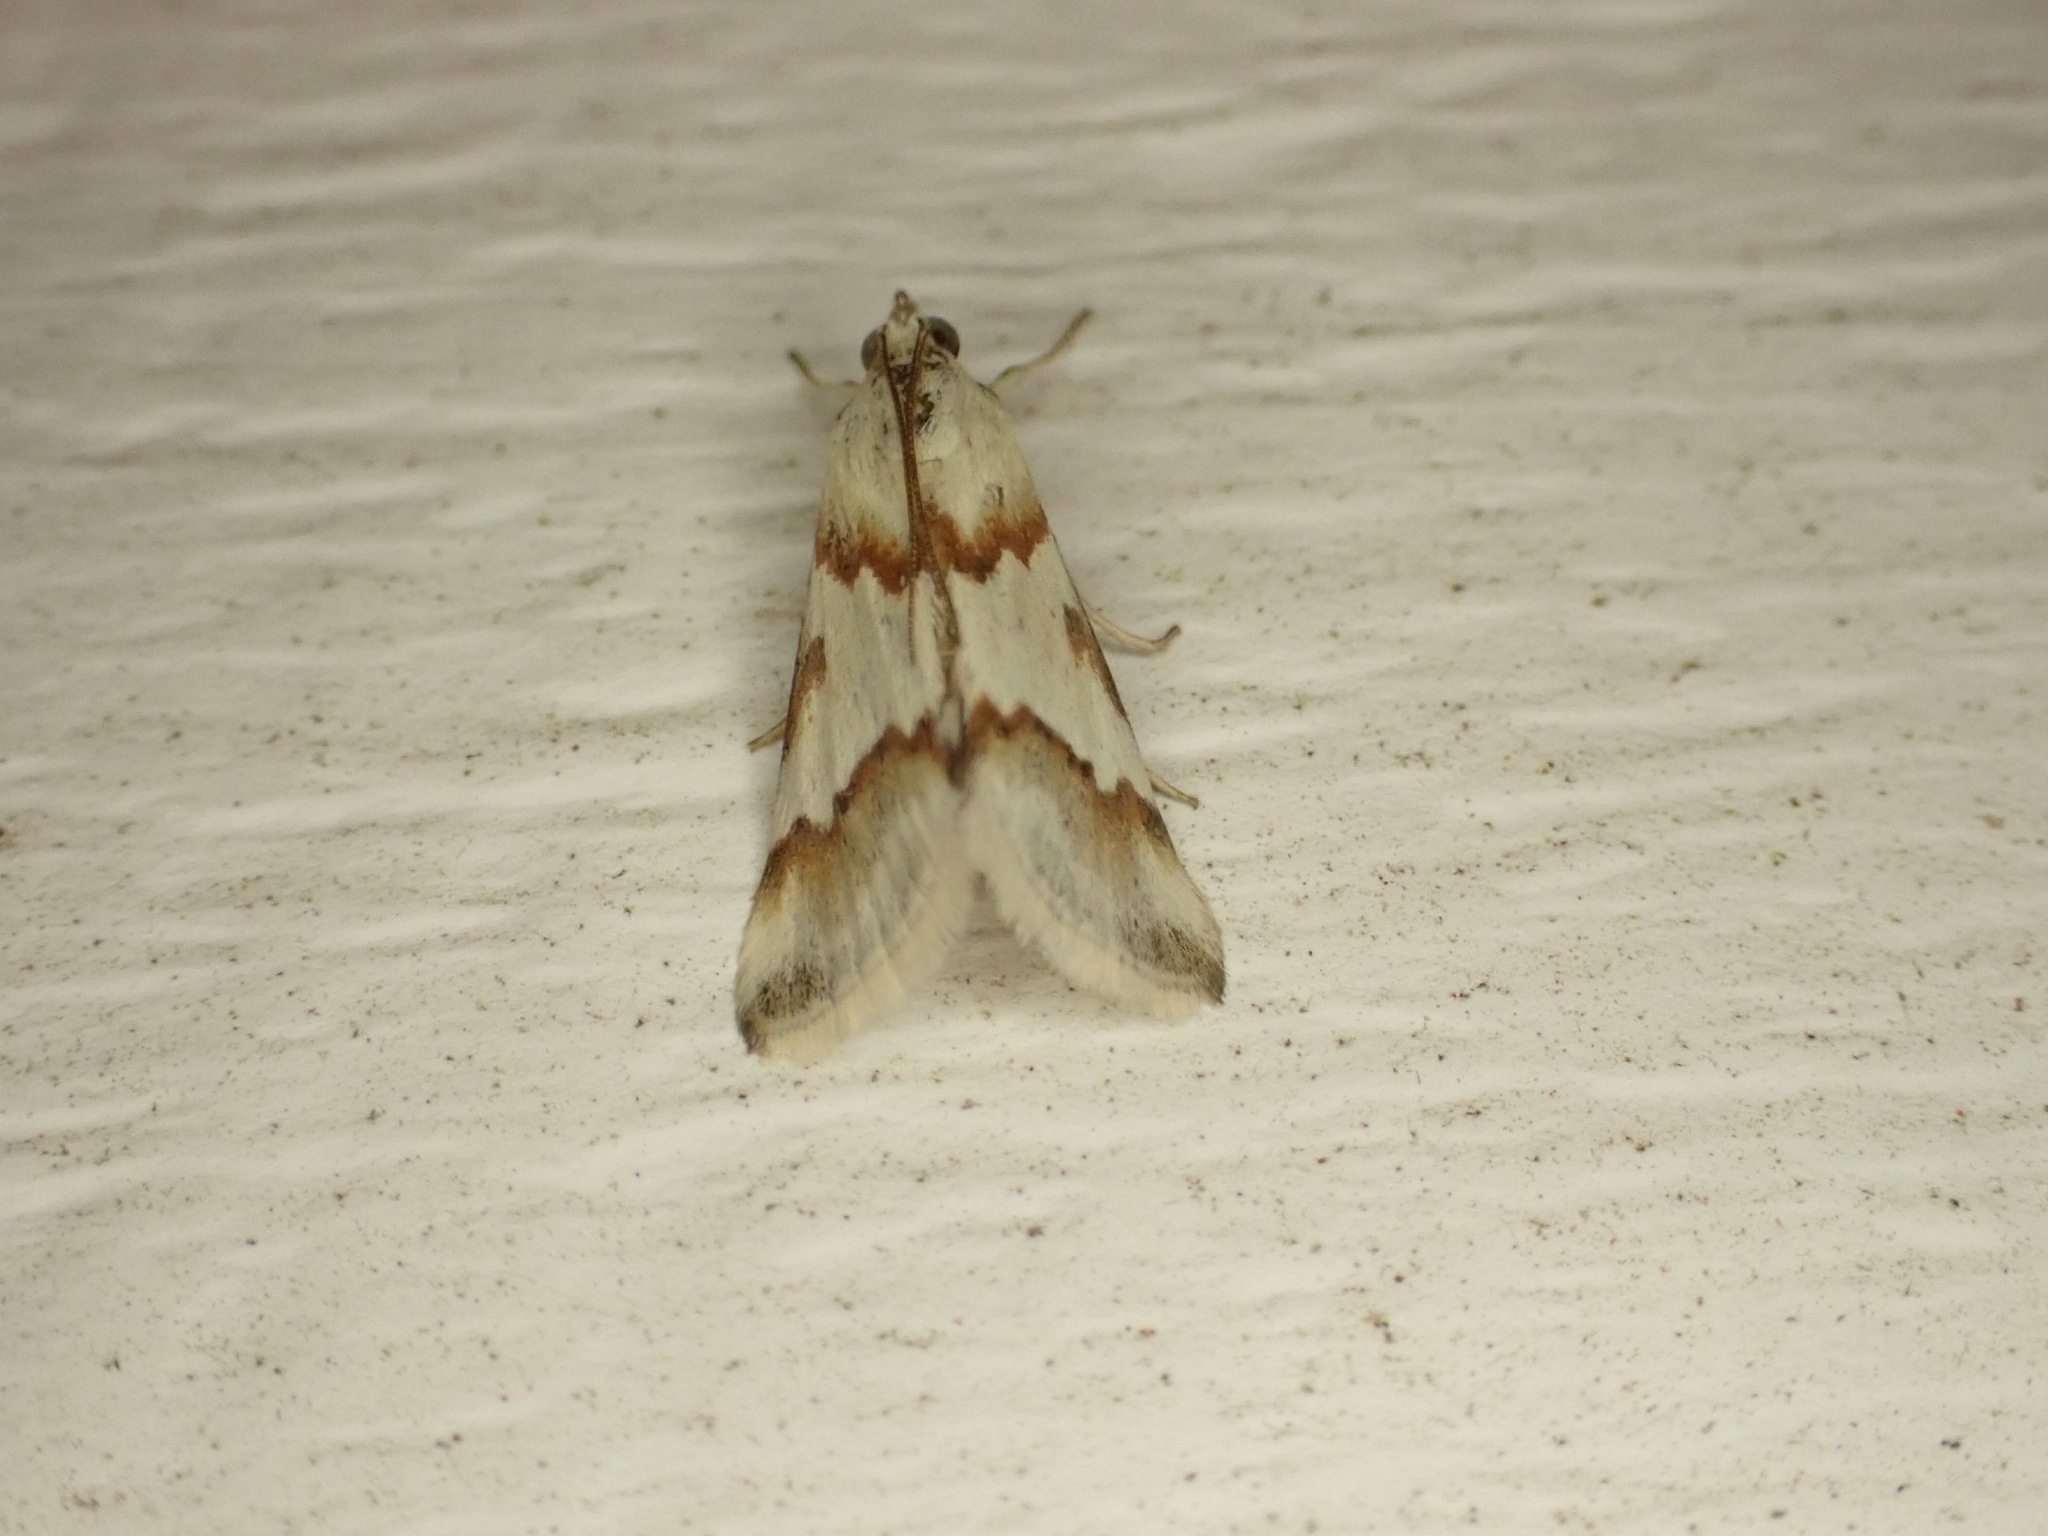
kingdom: Animalia
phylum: Arthropoda
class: Insecta
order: Lepidoptera
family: Crambidae
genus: Noctuelia
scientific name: Noctuelia Mimoschinia rufofascialis
